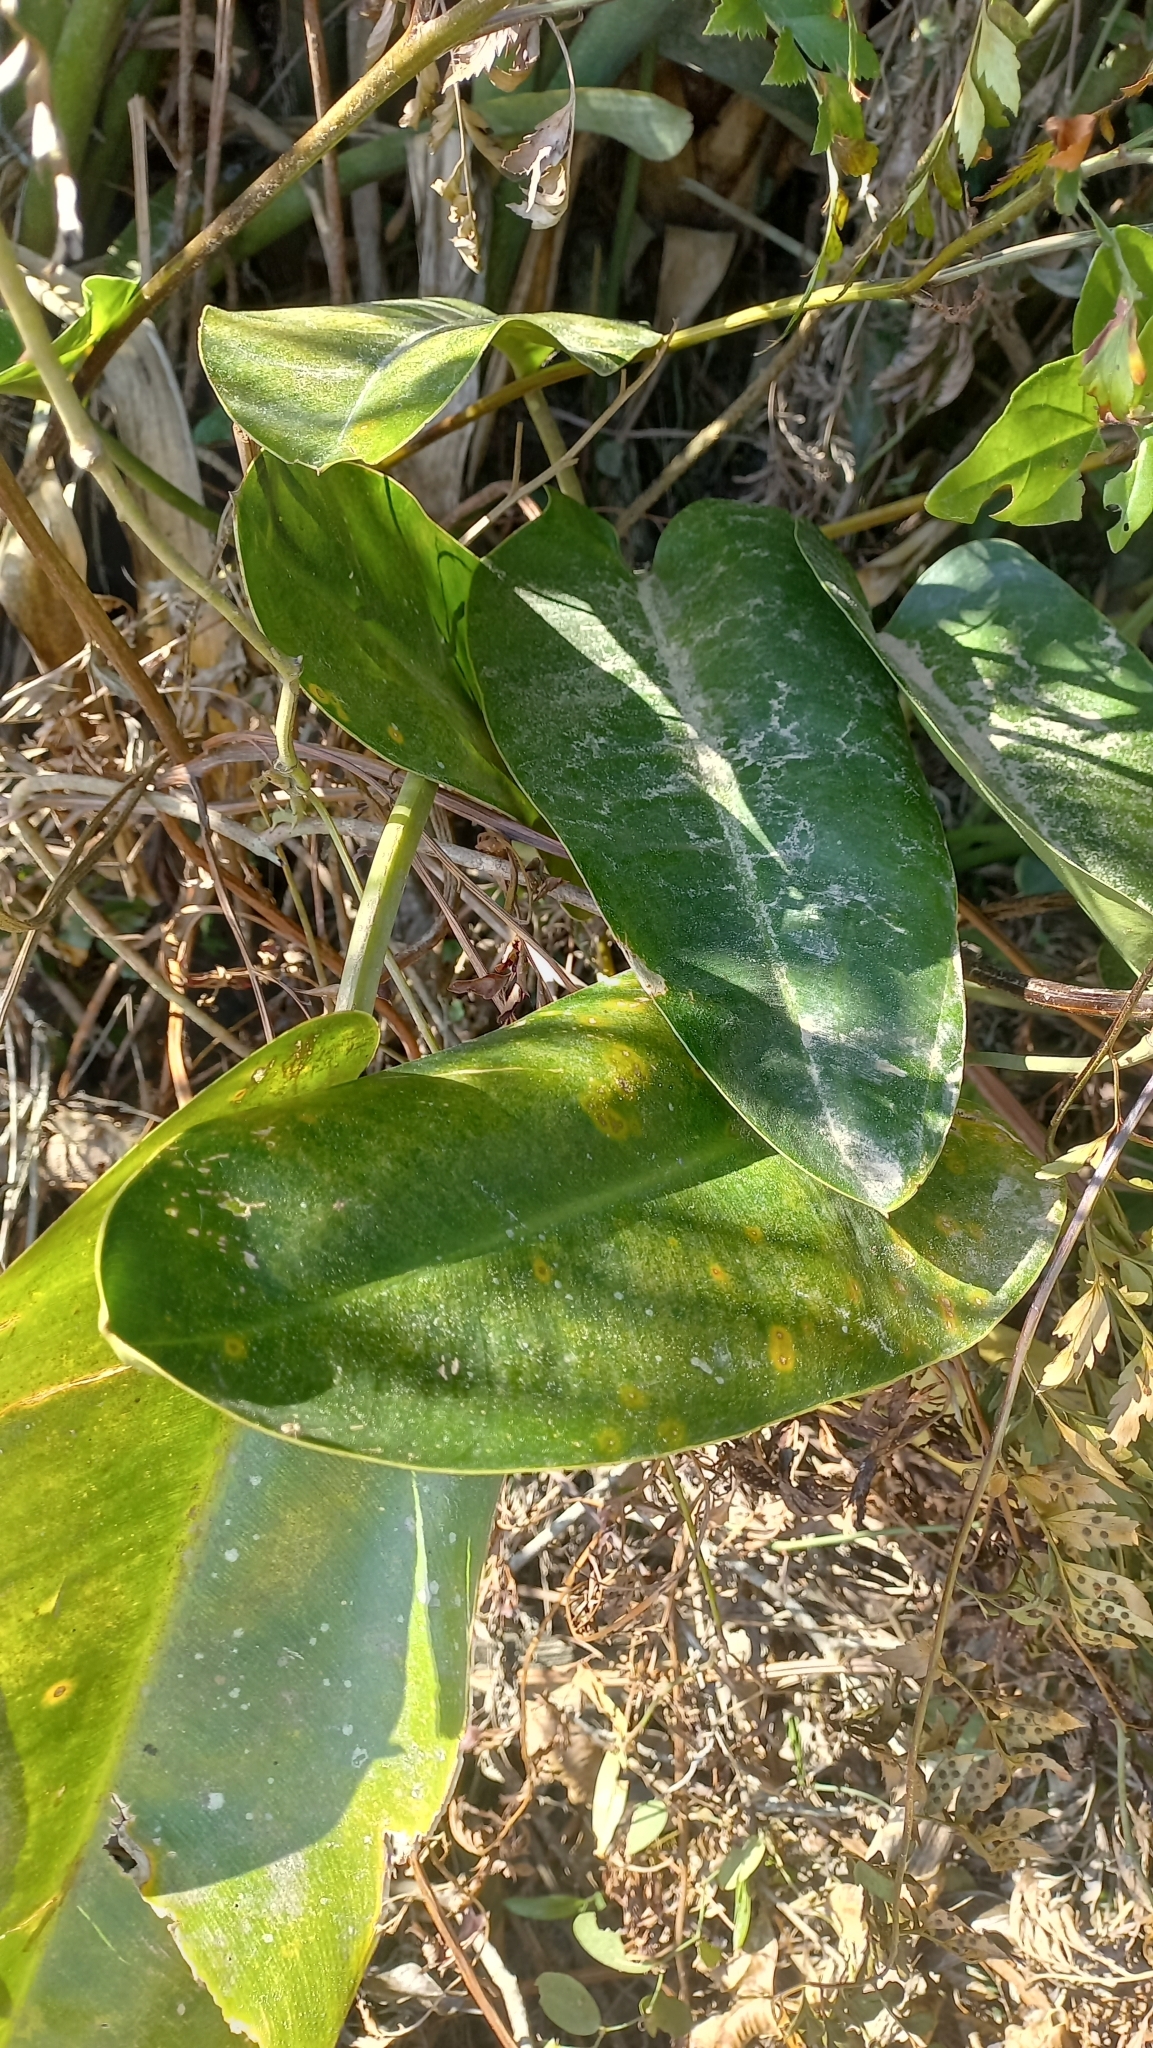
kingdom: Plantae
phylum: Tracheophyta
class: Liliopsida
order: Alismatales
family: Araceae
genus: Philodendron
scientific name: Philodendron renauxii
